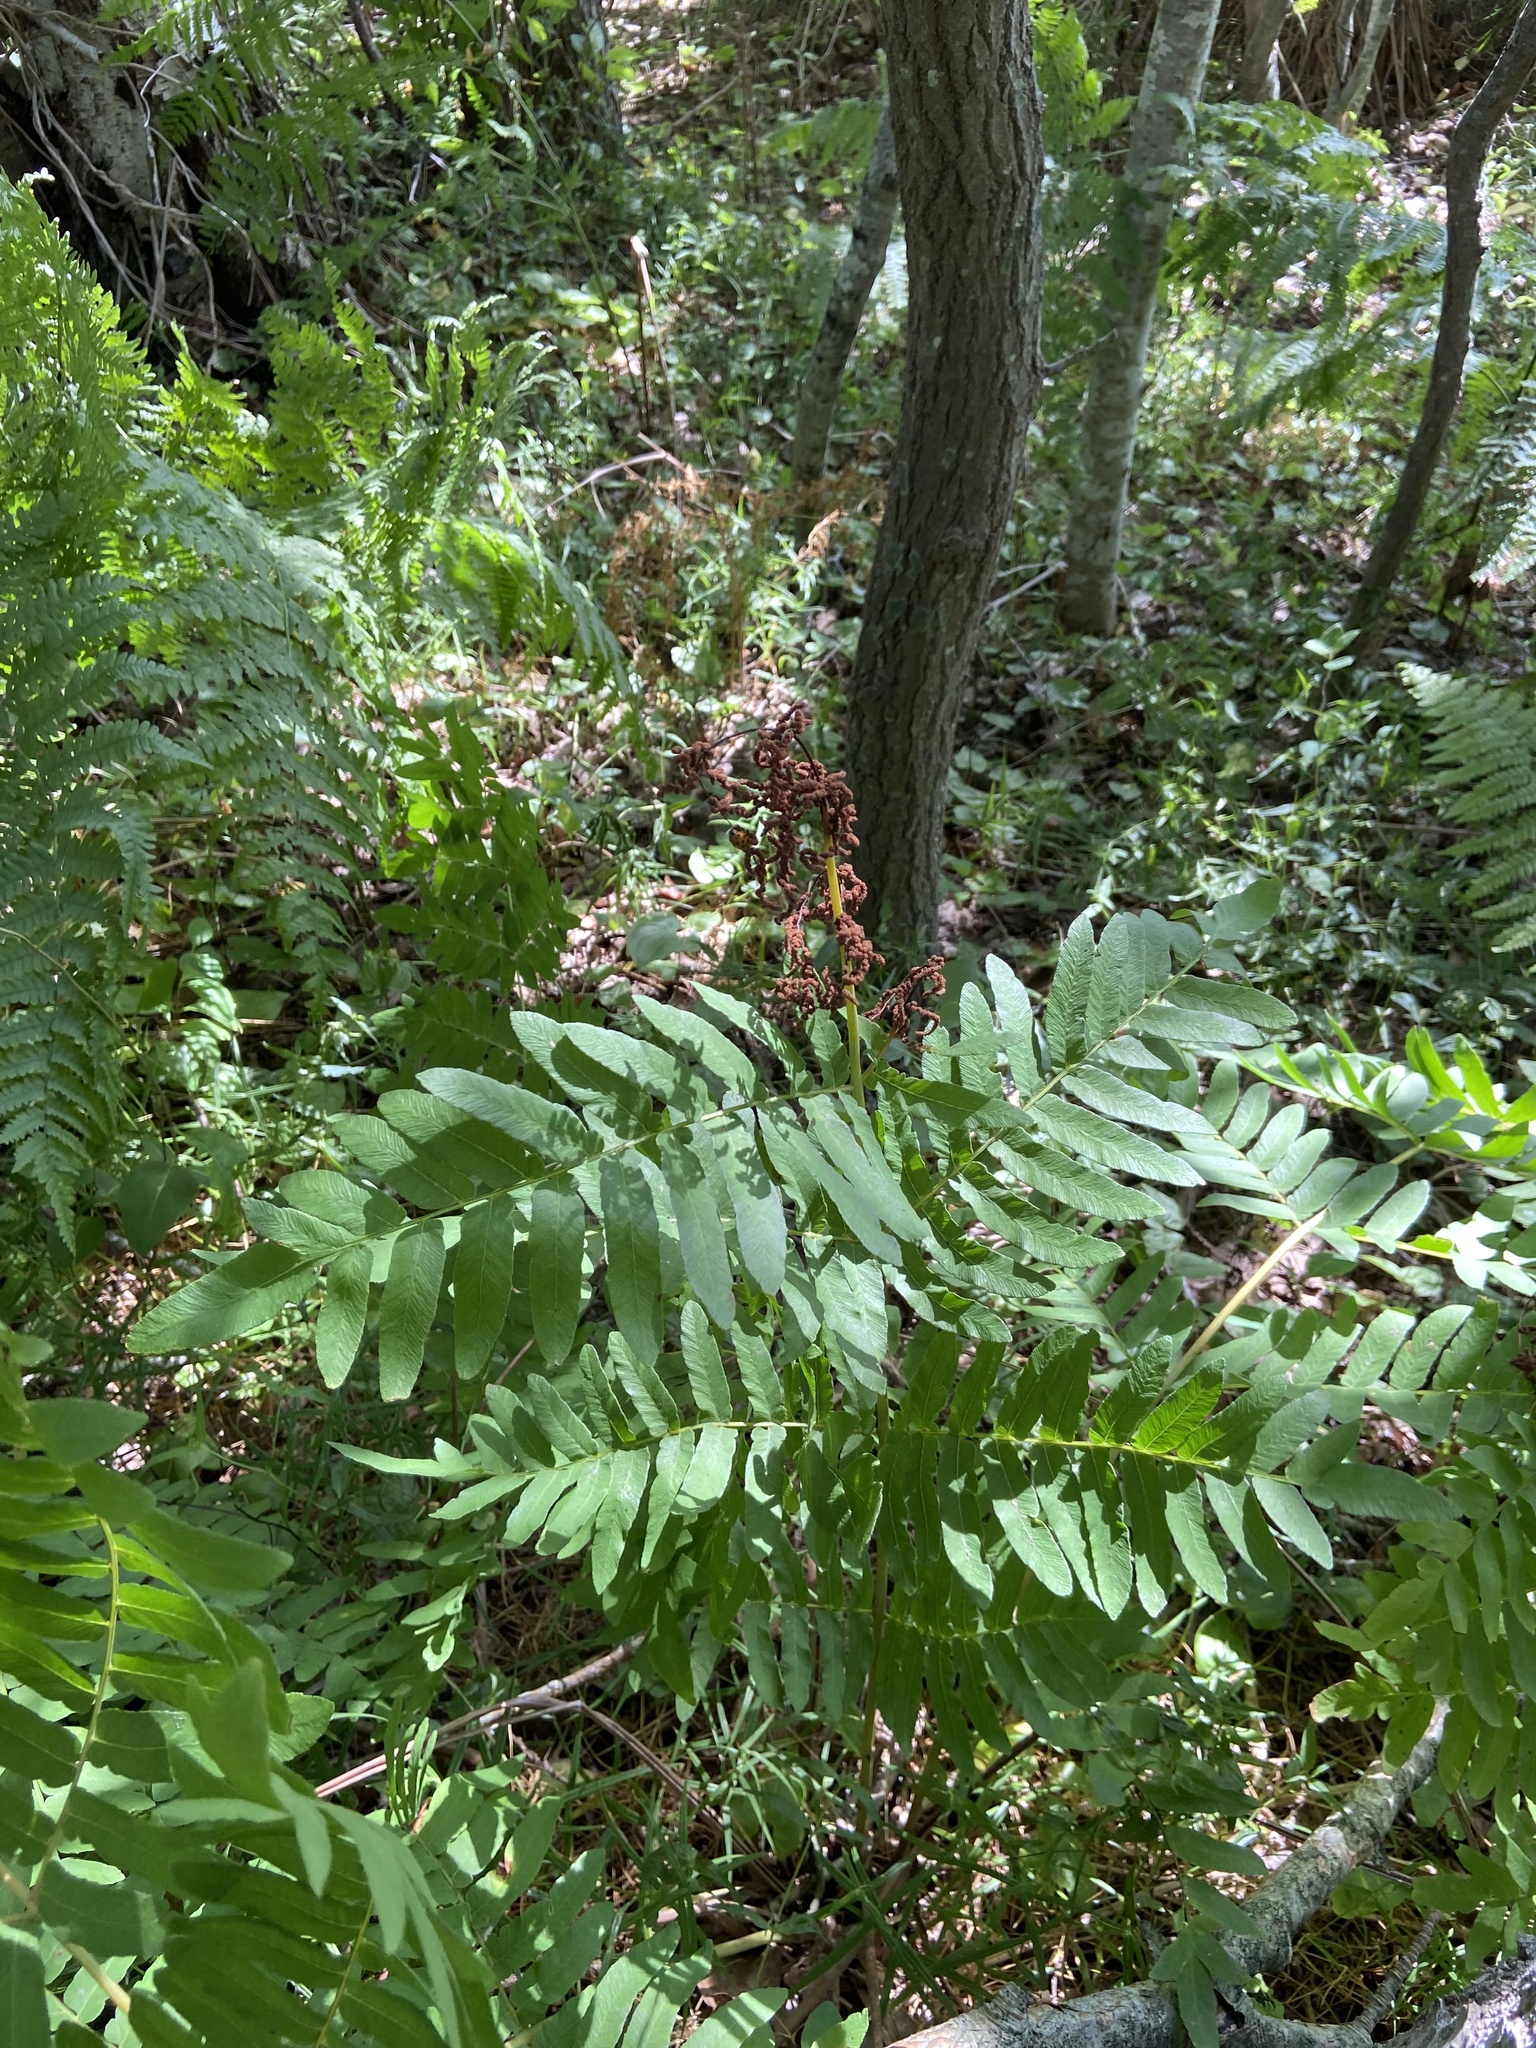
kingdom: Plantae
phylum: Tracheophyta
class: Polypodiopsida
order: Osmundales
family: Osmundaceae
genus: Osmunda
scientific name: Osmunda regalis
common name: Royal fern
